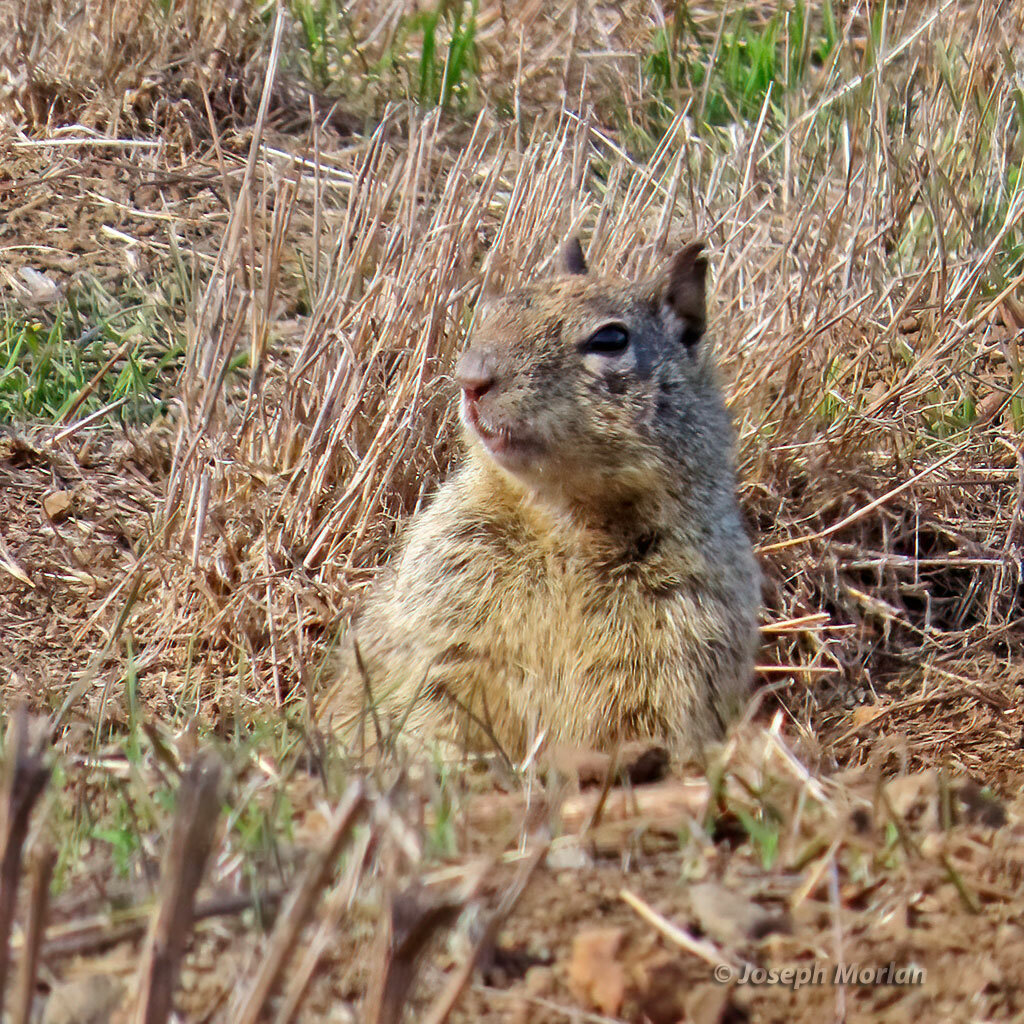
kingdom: Animalia
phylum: Chordata
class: Mammalia
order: Rodentia
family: Sciuridae
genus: Otospermophilus
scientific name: Otospermophilus beecheyi
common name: California ground squirrel
